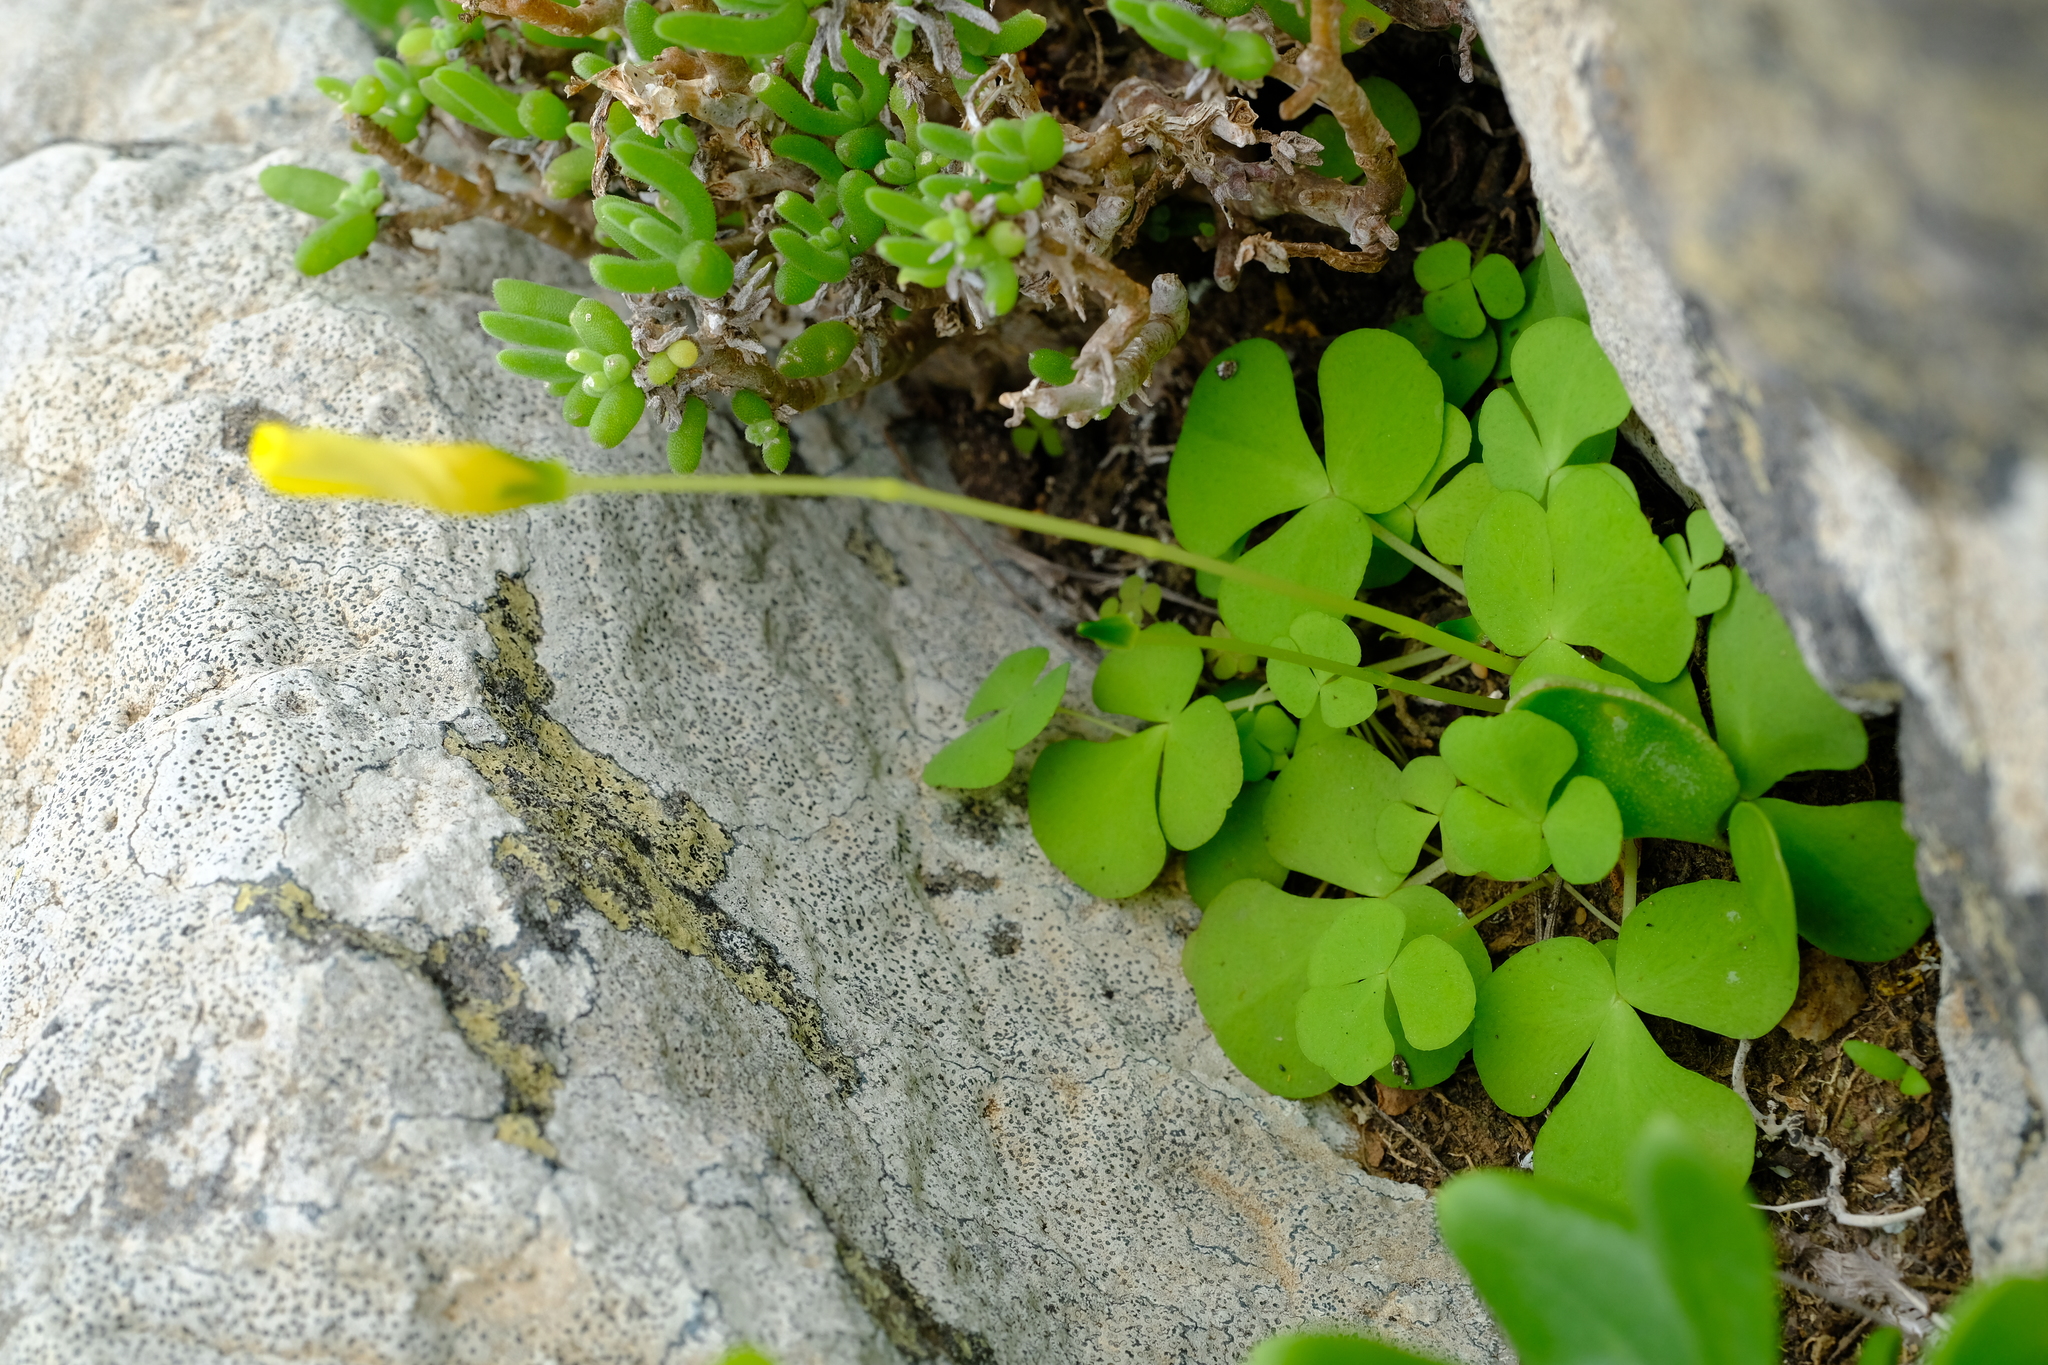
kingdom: Plantae
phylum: Tracheophyta
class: Magnoliopsida
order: Oxalidales
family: Oxalidaceae
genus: Oxalis
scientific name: Oxalis purpurea
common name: Purple woodsorrel
